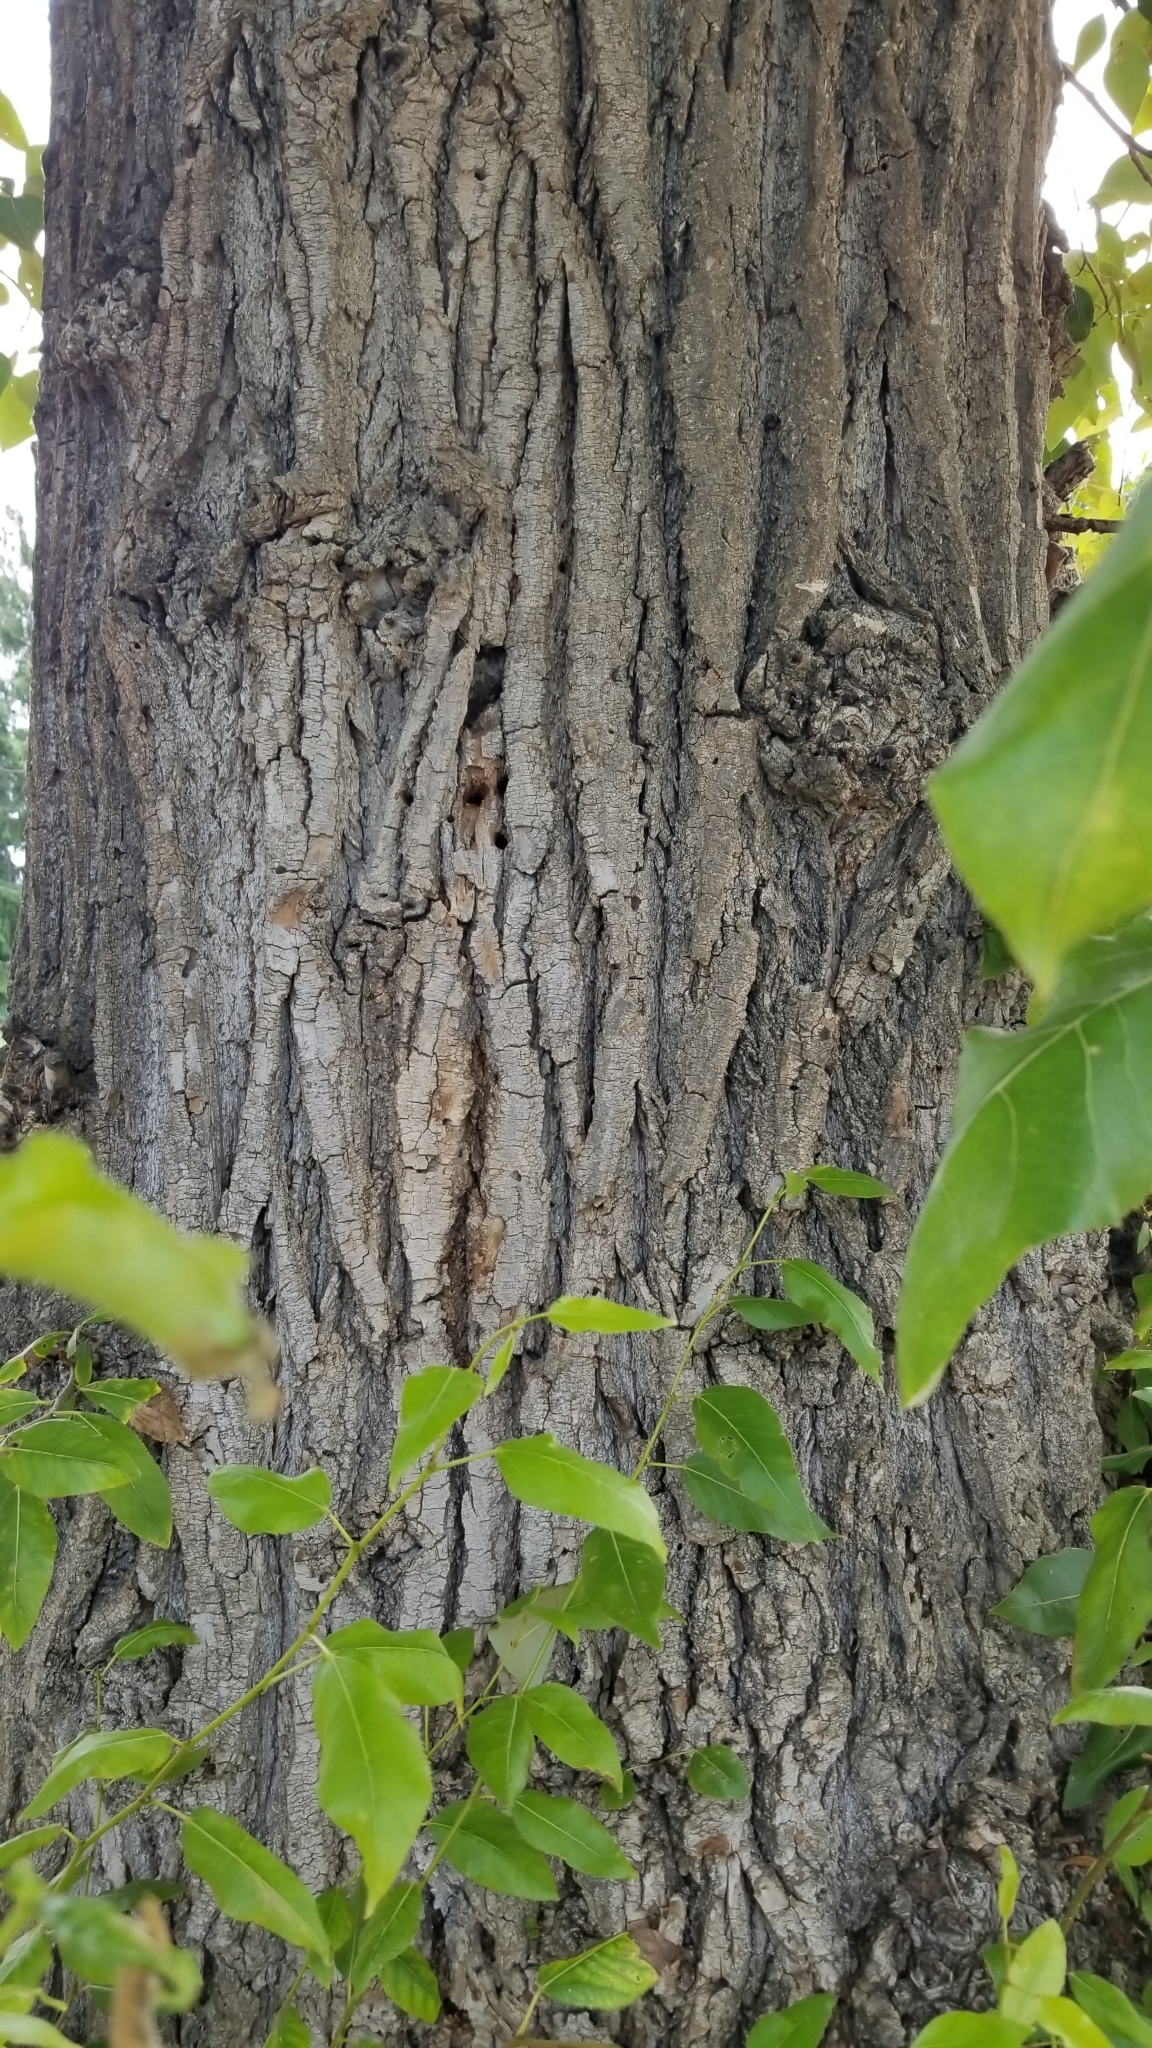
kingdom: Plantae
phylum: Tracheophyta
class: Magnoliopsida
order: Malpighiales
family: Salicaceae
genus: Populus
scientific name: Populus trichocarpa
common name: Black cottonwood
